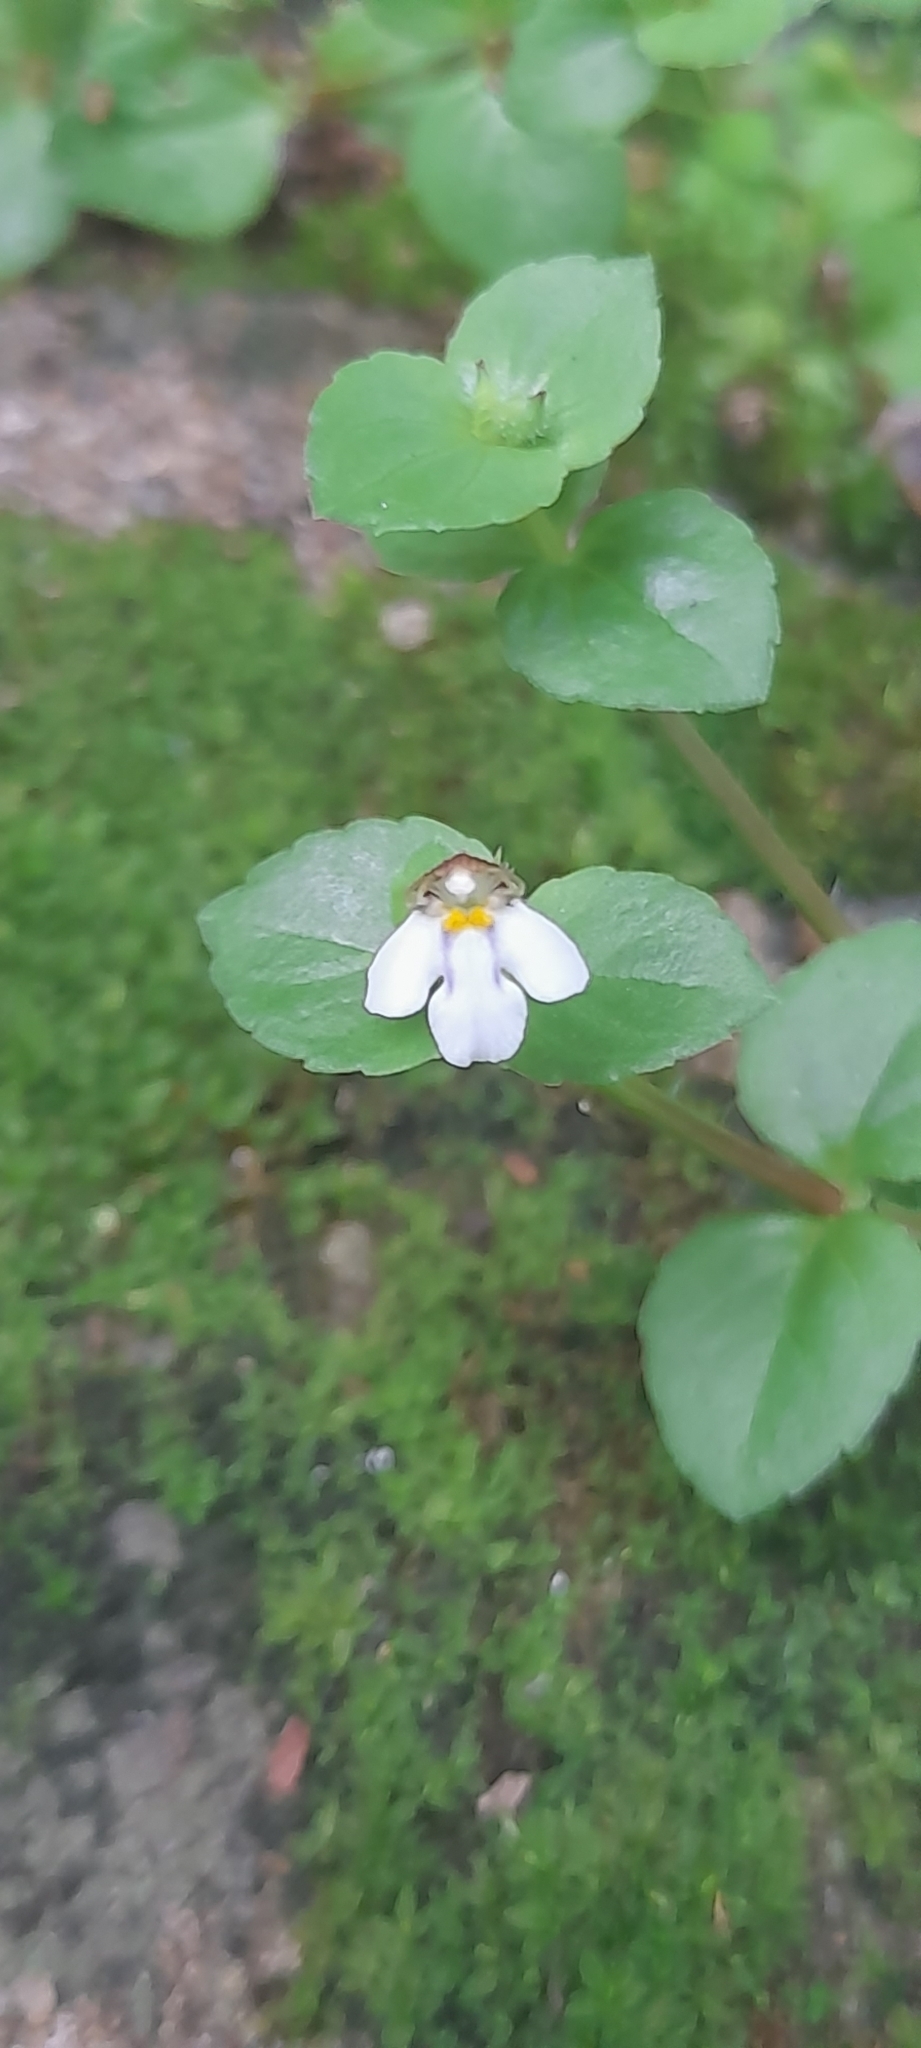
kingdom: Plantae
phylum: Tracheophyta
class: Magnoliopsida
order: Lamiales
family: Linderniaceae
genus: Yamazakia
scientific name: Yamazakia pusilla
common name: Tiny slitwort
